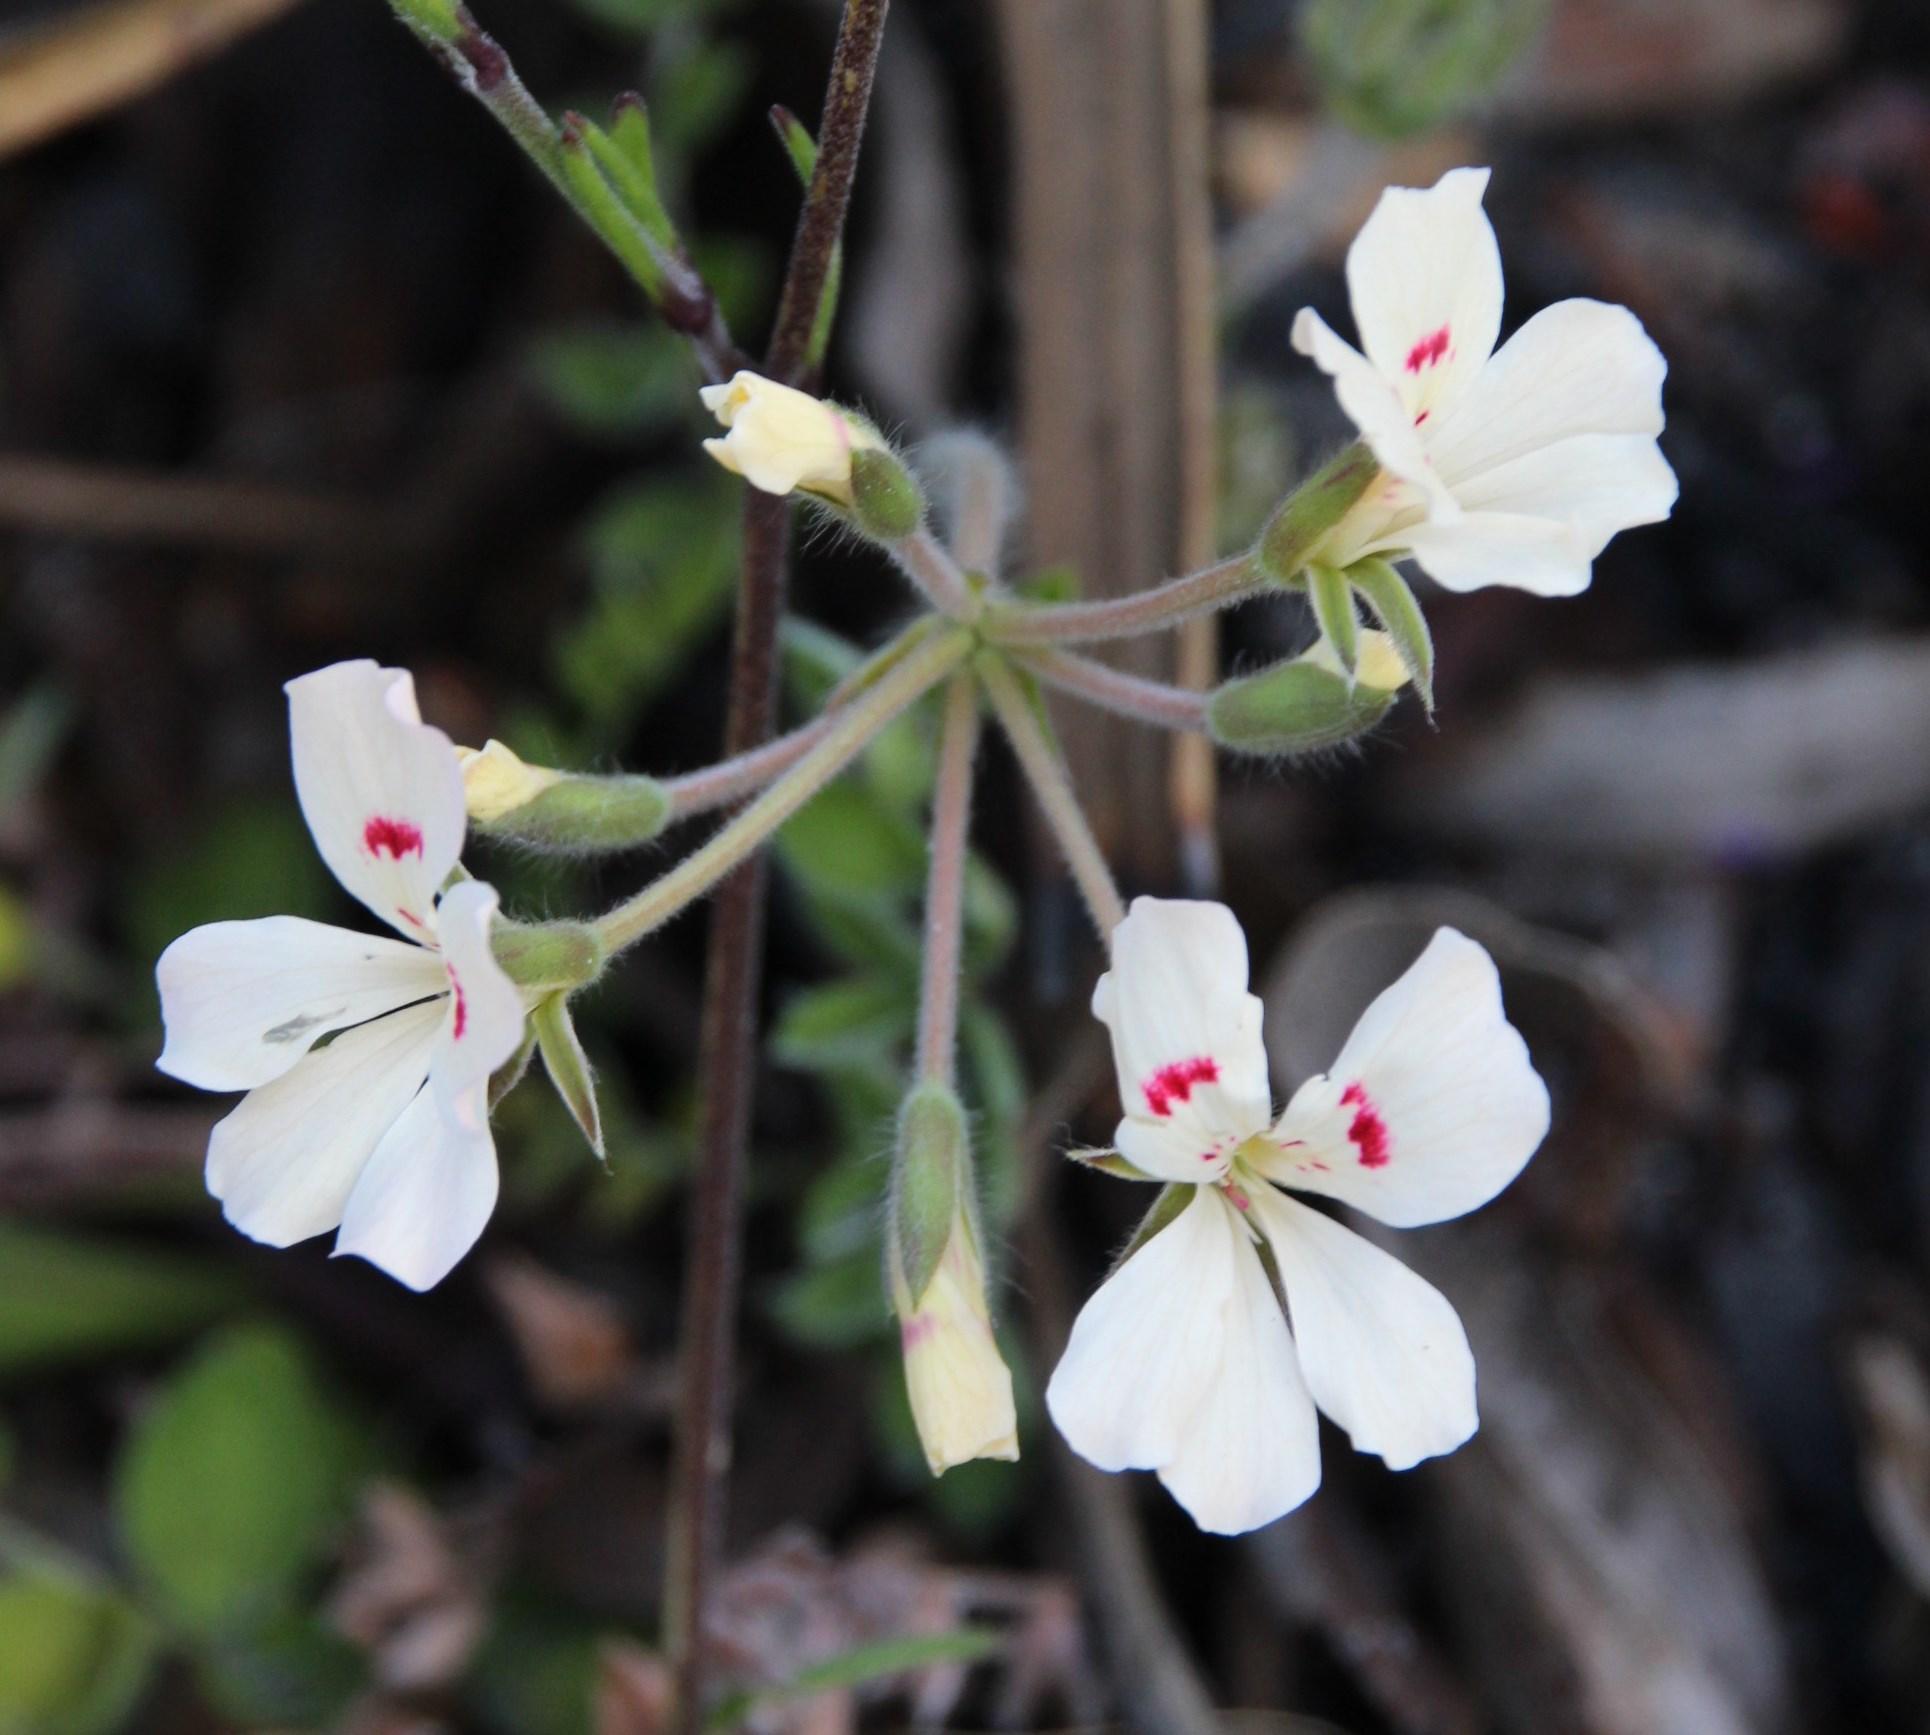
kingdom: Plantae
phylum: Tracheophyta
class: Magnoliopsida
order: Geraniales
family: Geraniaceae
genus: Pelargonium
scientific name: Pelargonium pinnatum
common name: Pinnated pelargonium
